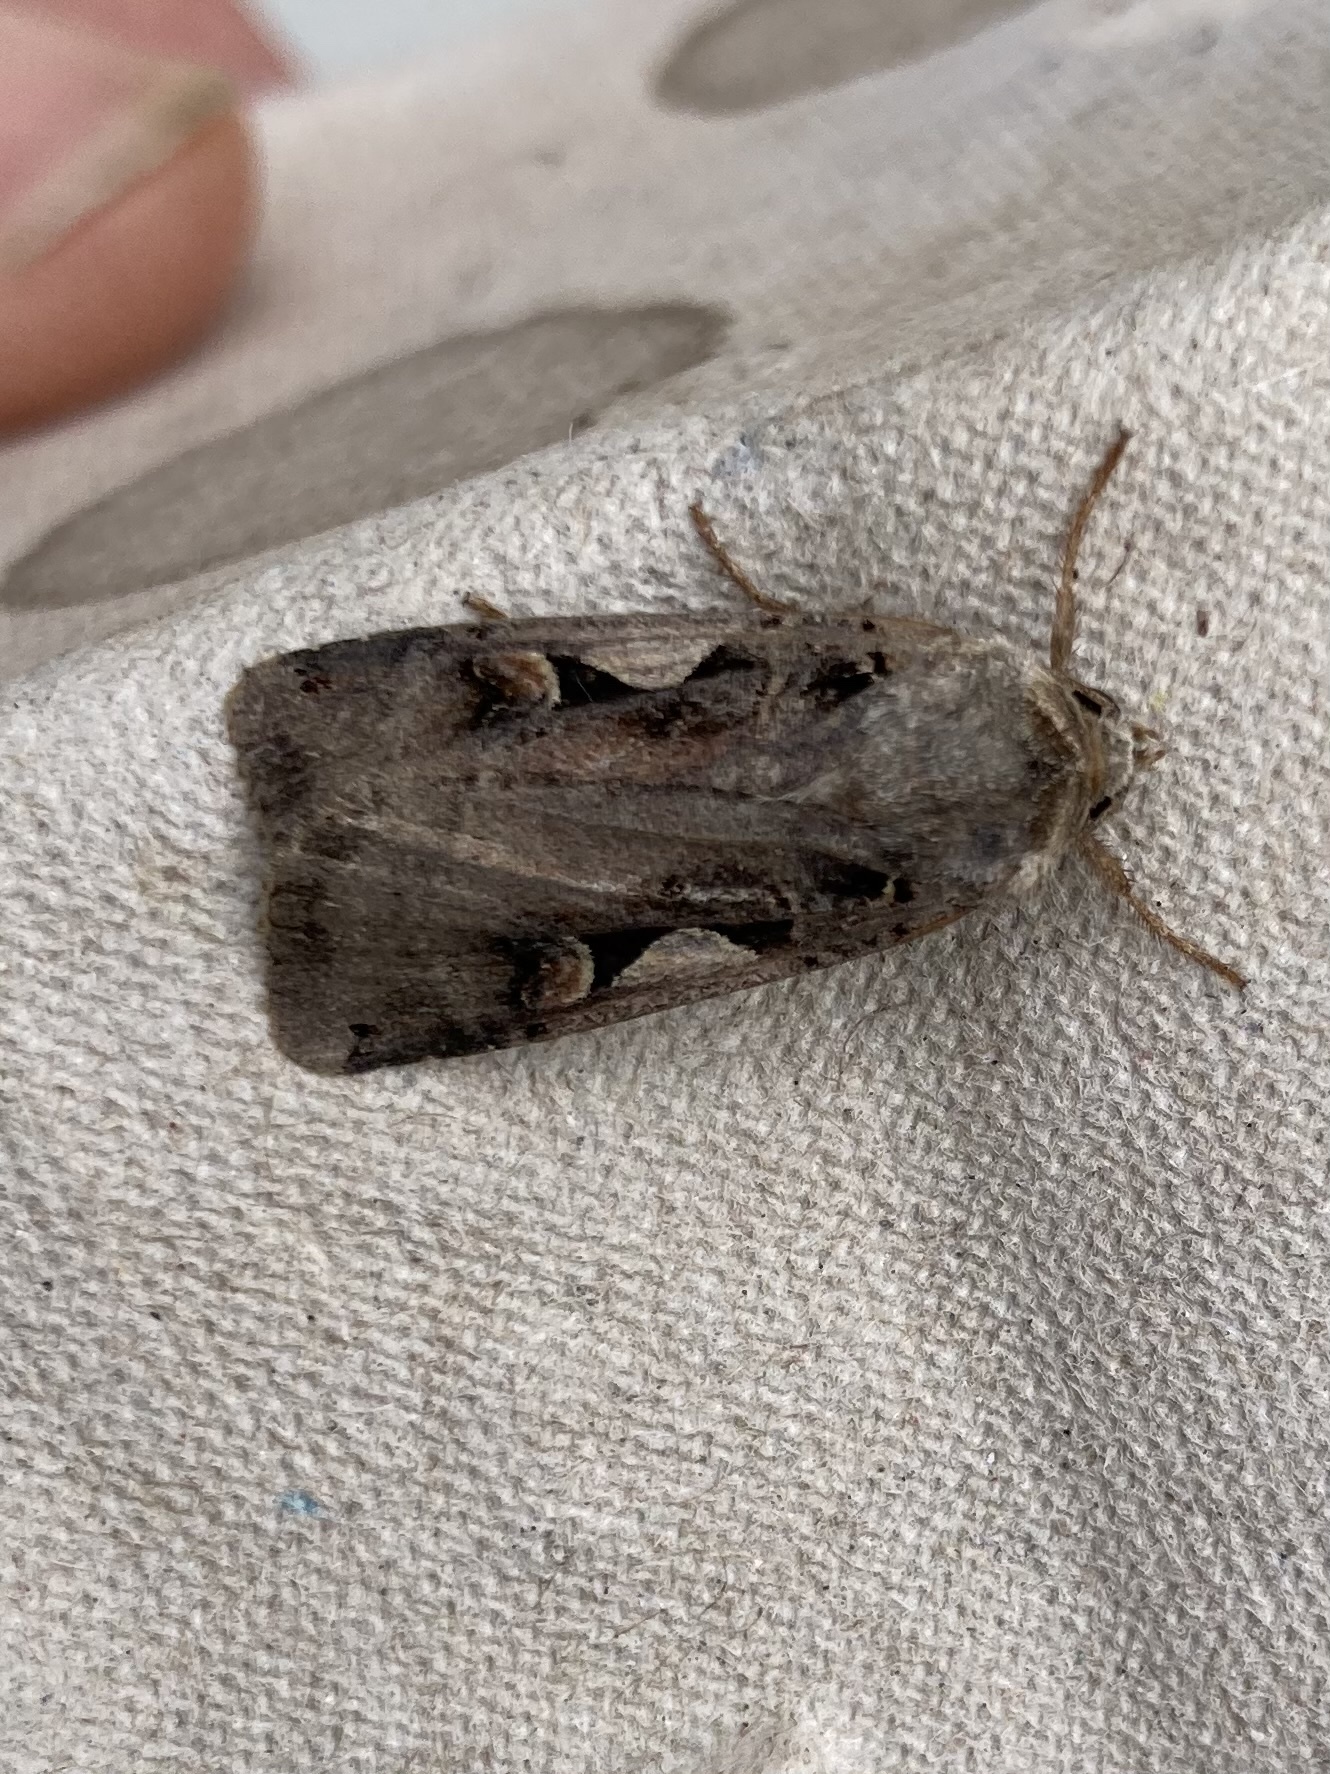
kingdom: Animalia
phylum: Arthropoda
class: Insecta
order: Lepidoptera
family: Noctuidae
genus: Xestia
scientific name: Xestia c-nigrum
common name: Setaceous hebrew character
